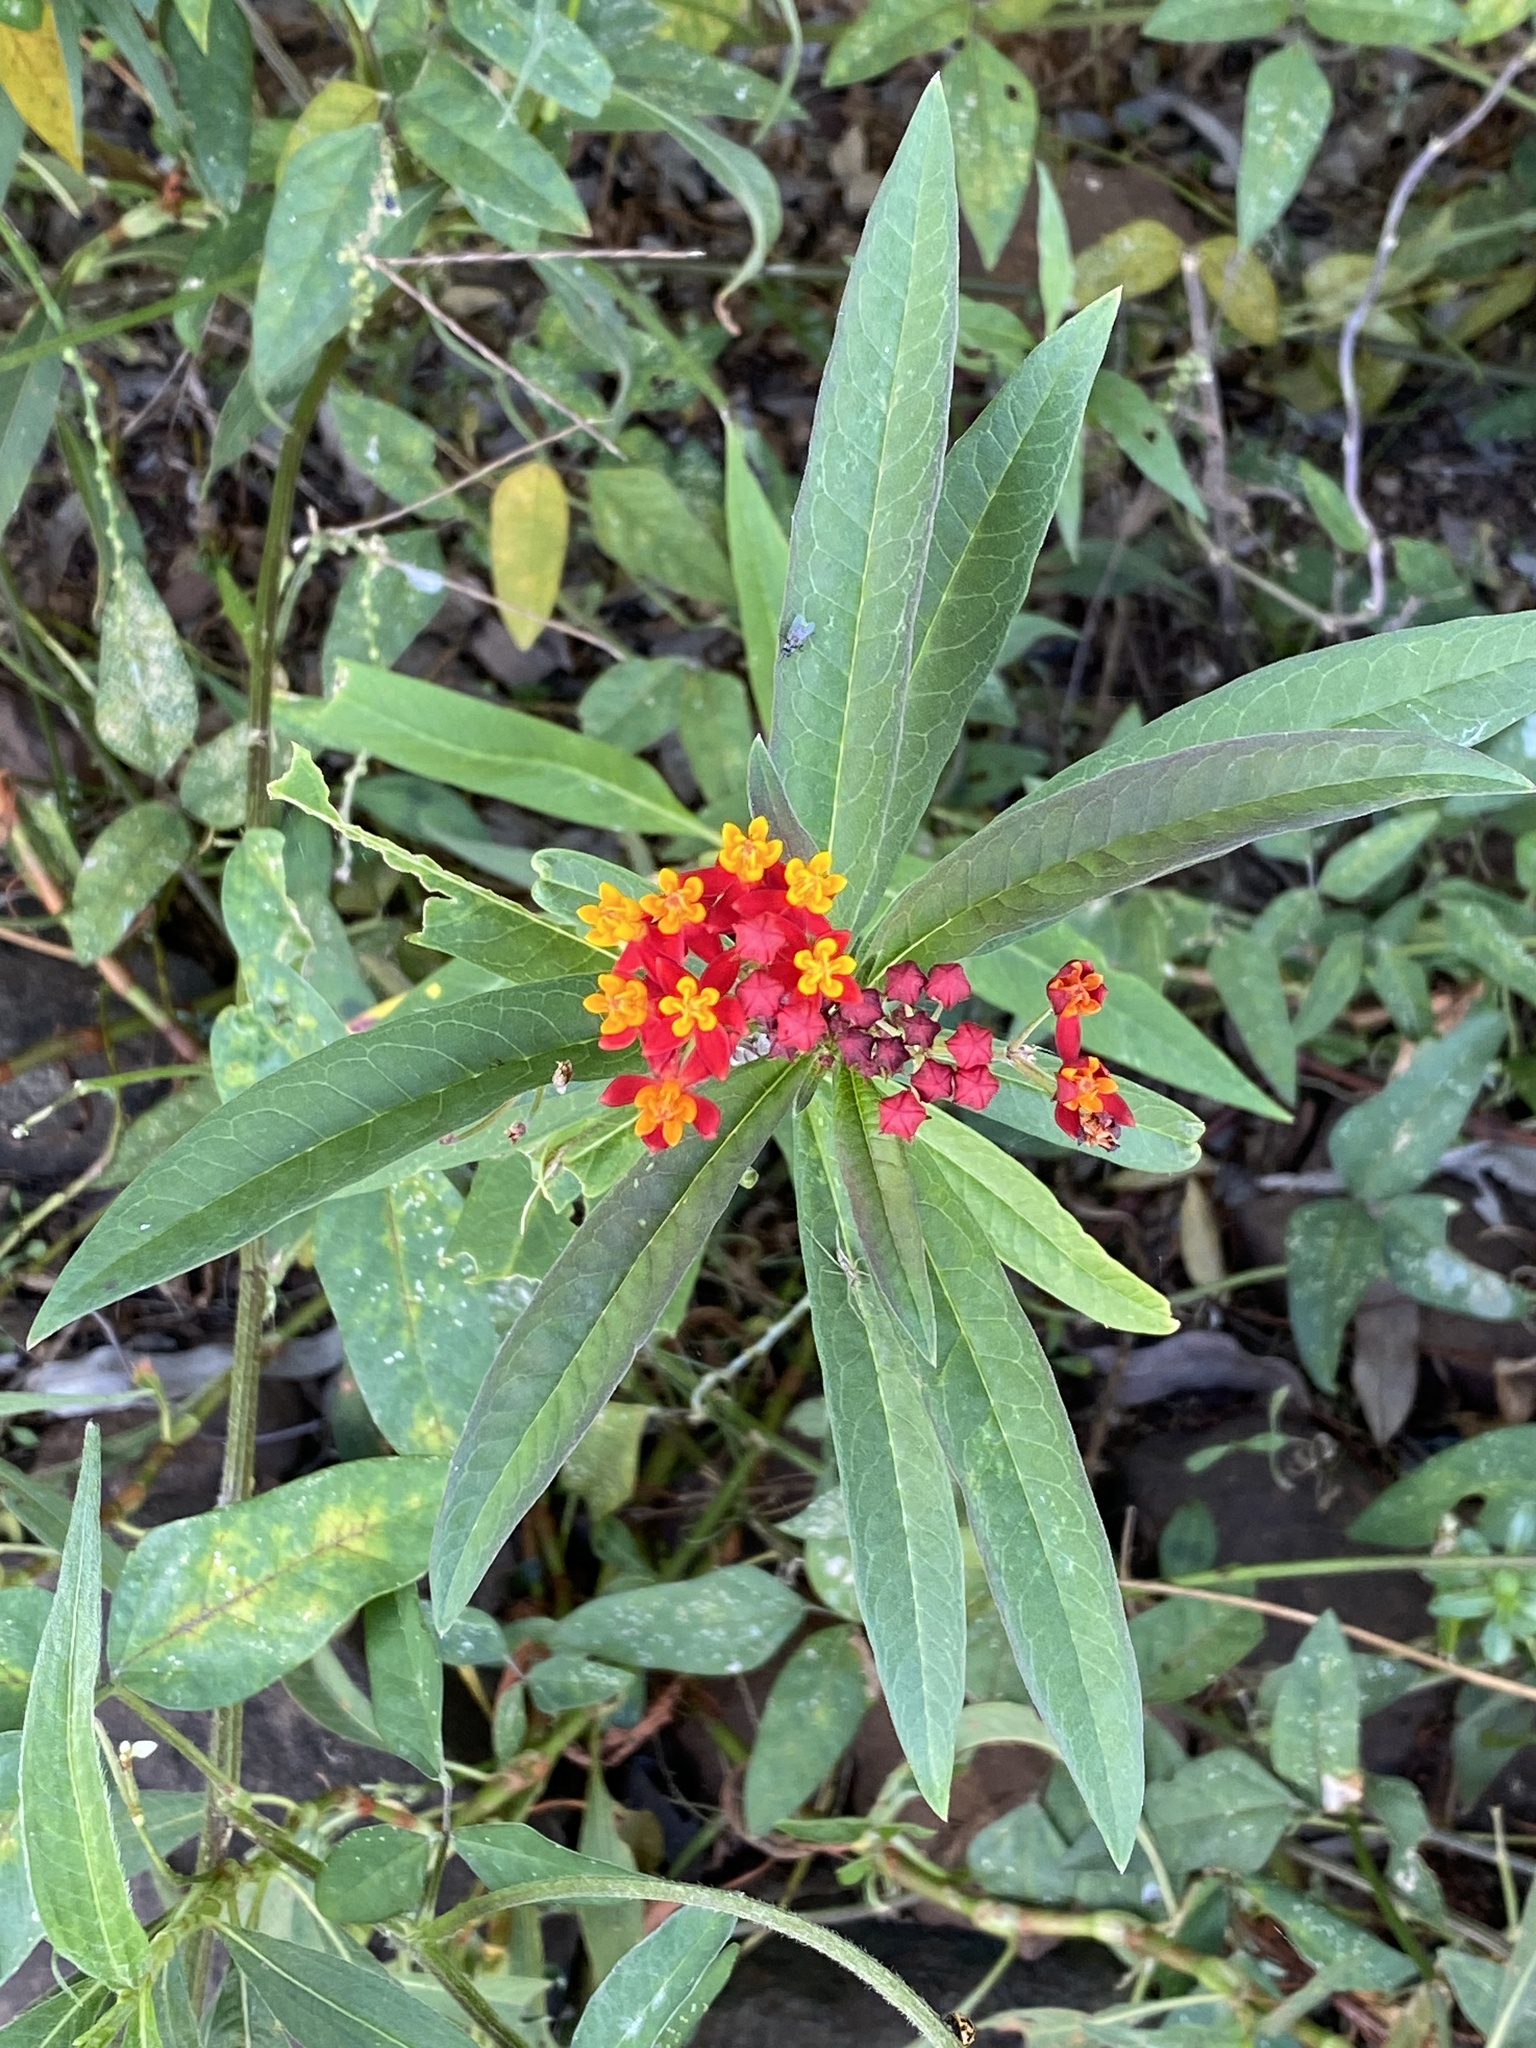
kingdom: Plantae
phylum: Tracheophyta
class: Magnoliopsida
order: Gentianales
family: Apocynaceae
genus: Asclepias
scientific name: Asclepias curassavica
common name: Bloodflower
